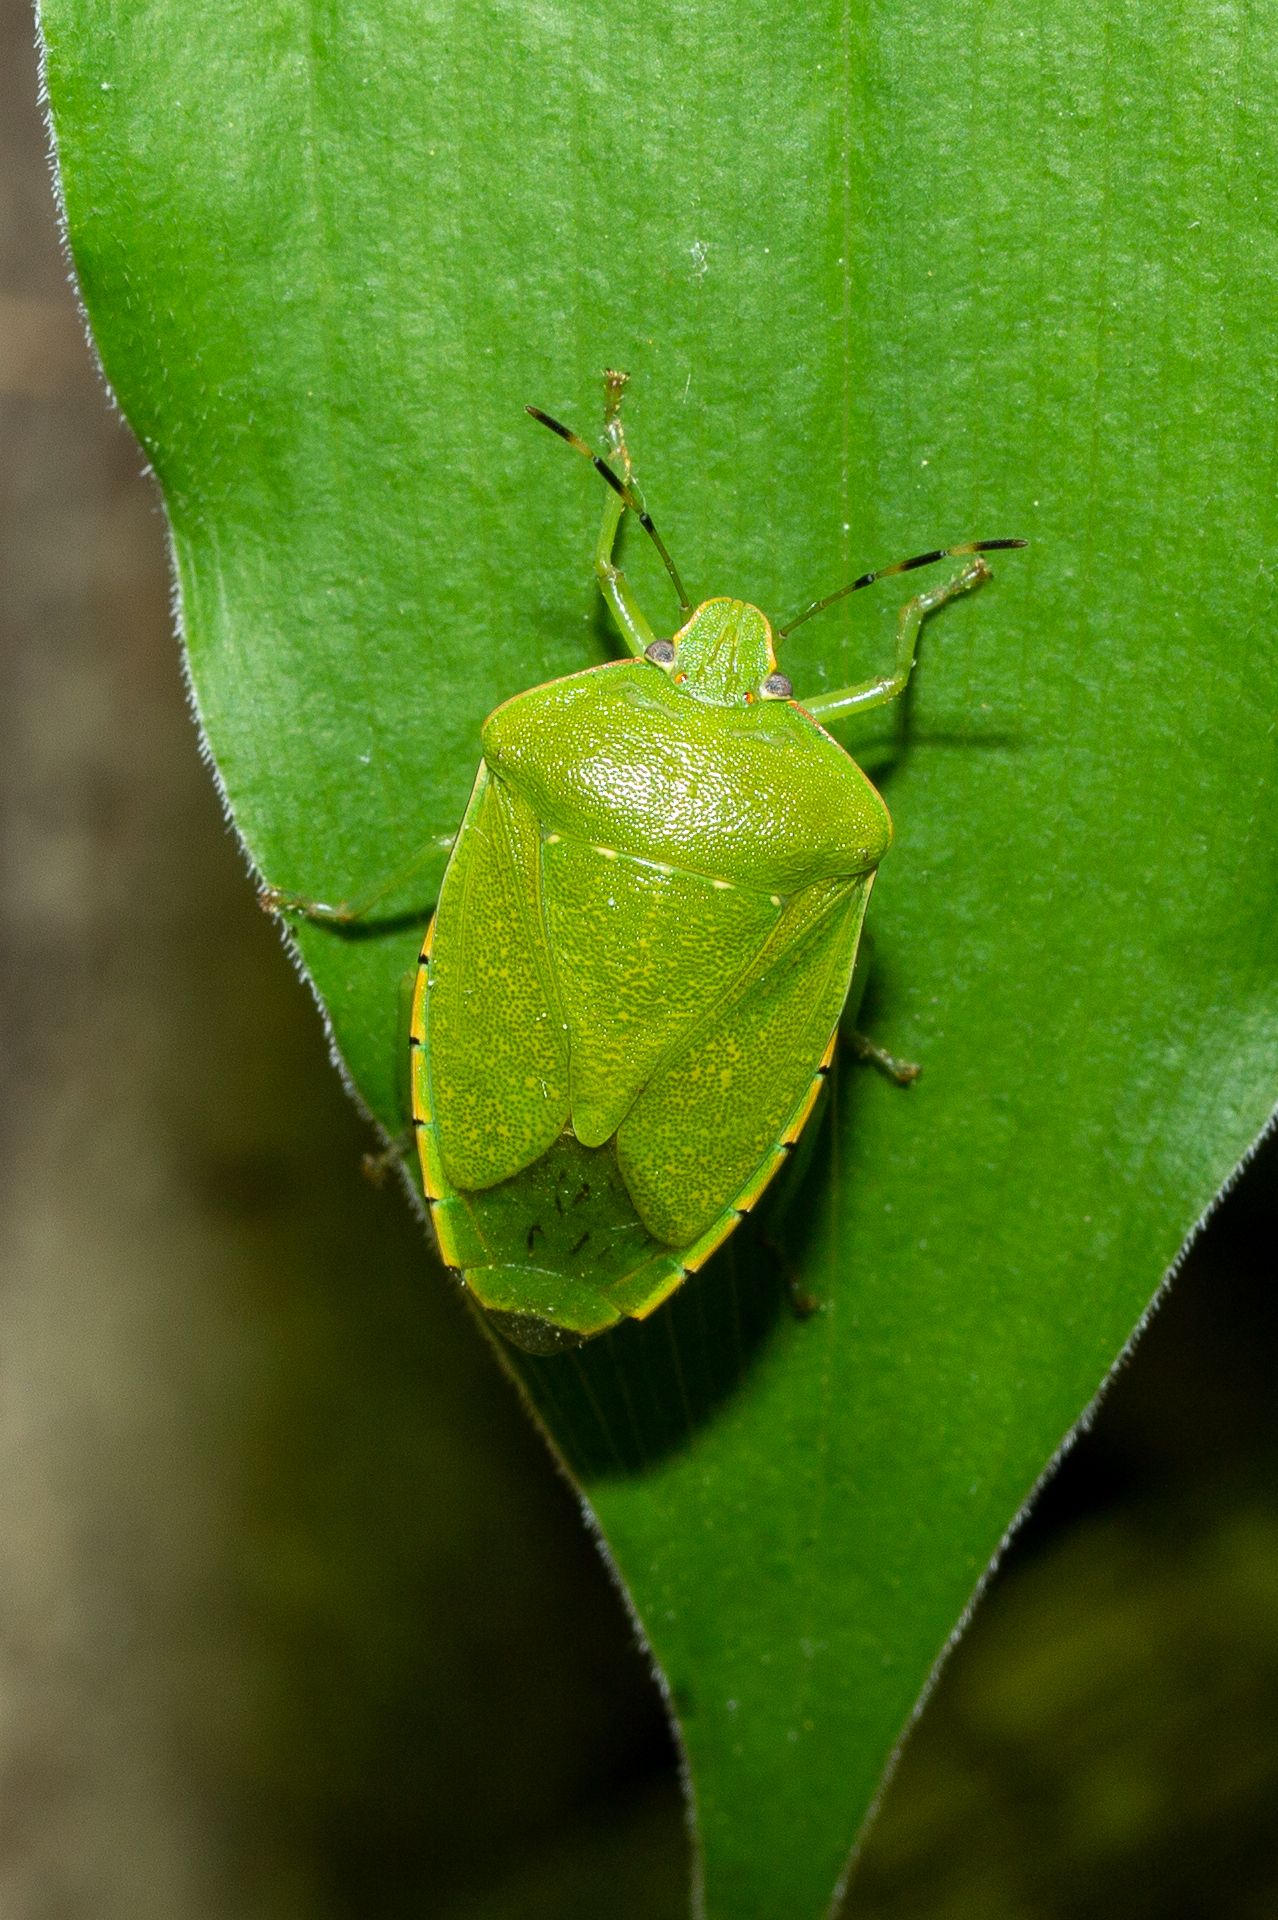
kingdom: Animalia
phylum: Arthropoda
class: Insecta
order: Hemiptera
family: Pentatomidae
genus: Chinavia
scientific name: Chinavia hilaris
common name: Green stink bug
